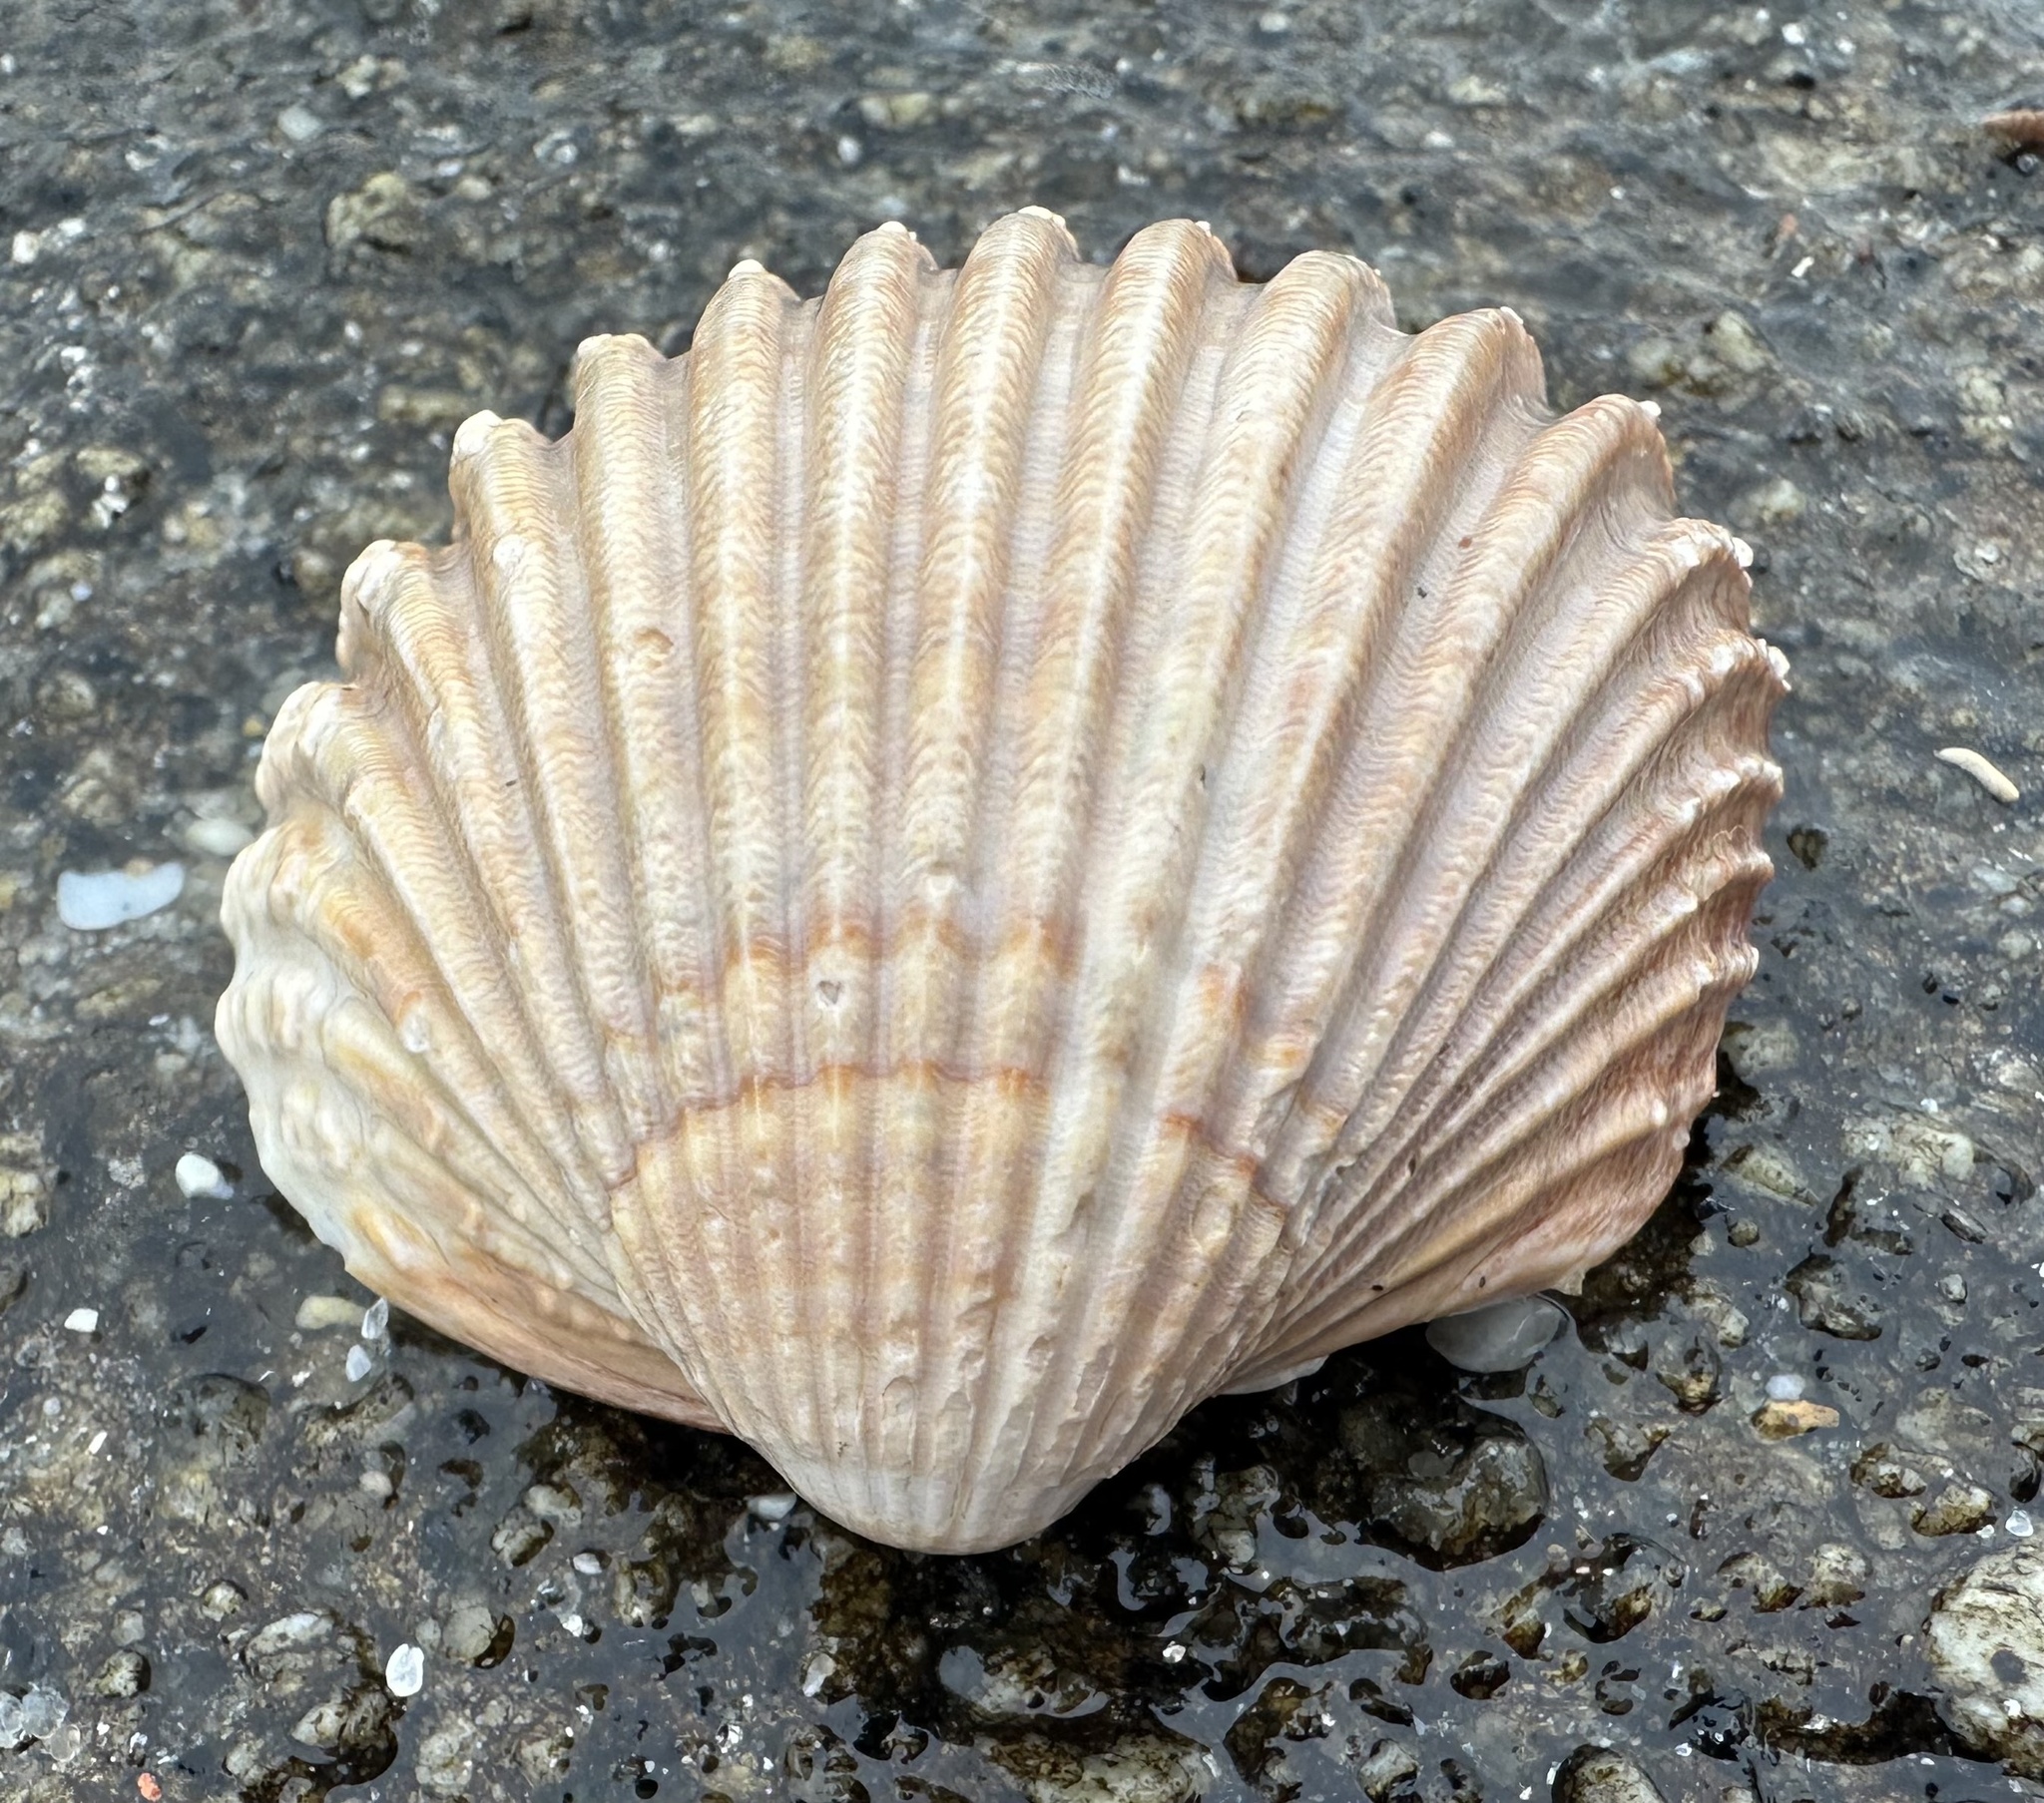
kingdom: Animalia
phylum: Mollusca
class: Bivalvia
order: Cardiida
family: Cardiidae
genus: Acanthocardia
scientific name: Acanthocardia tuberculata
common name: Rough cockle
